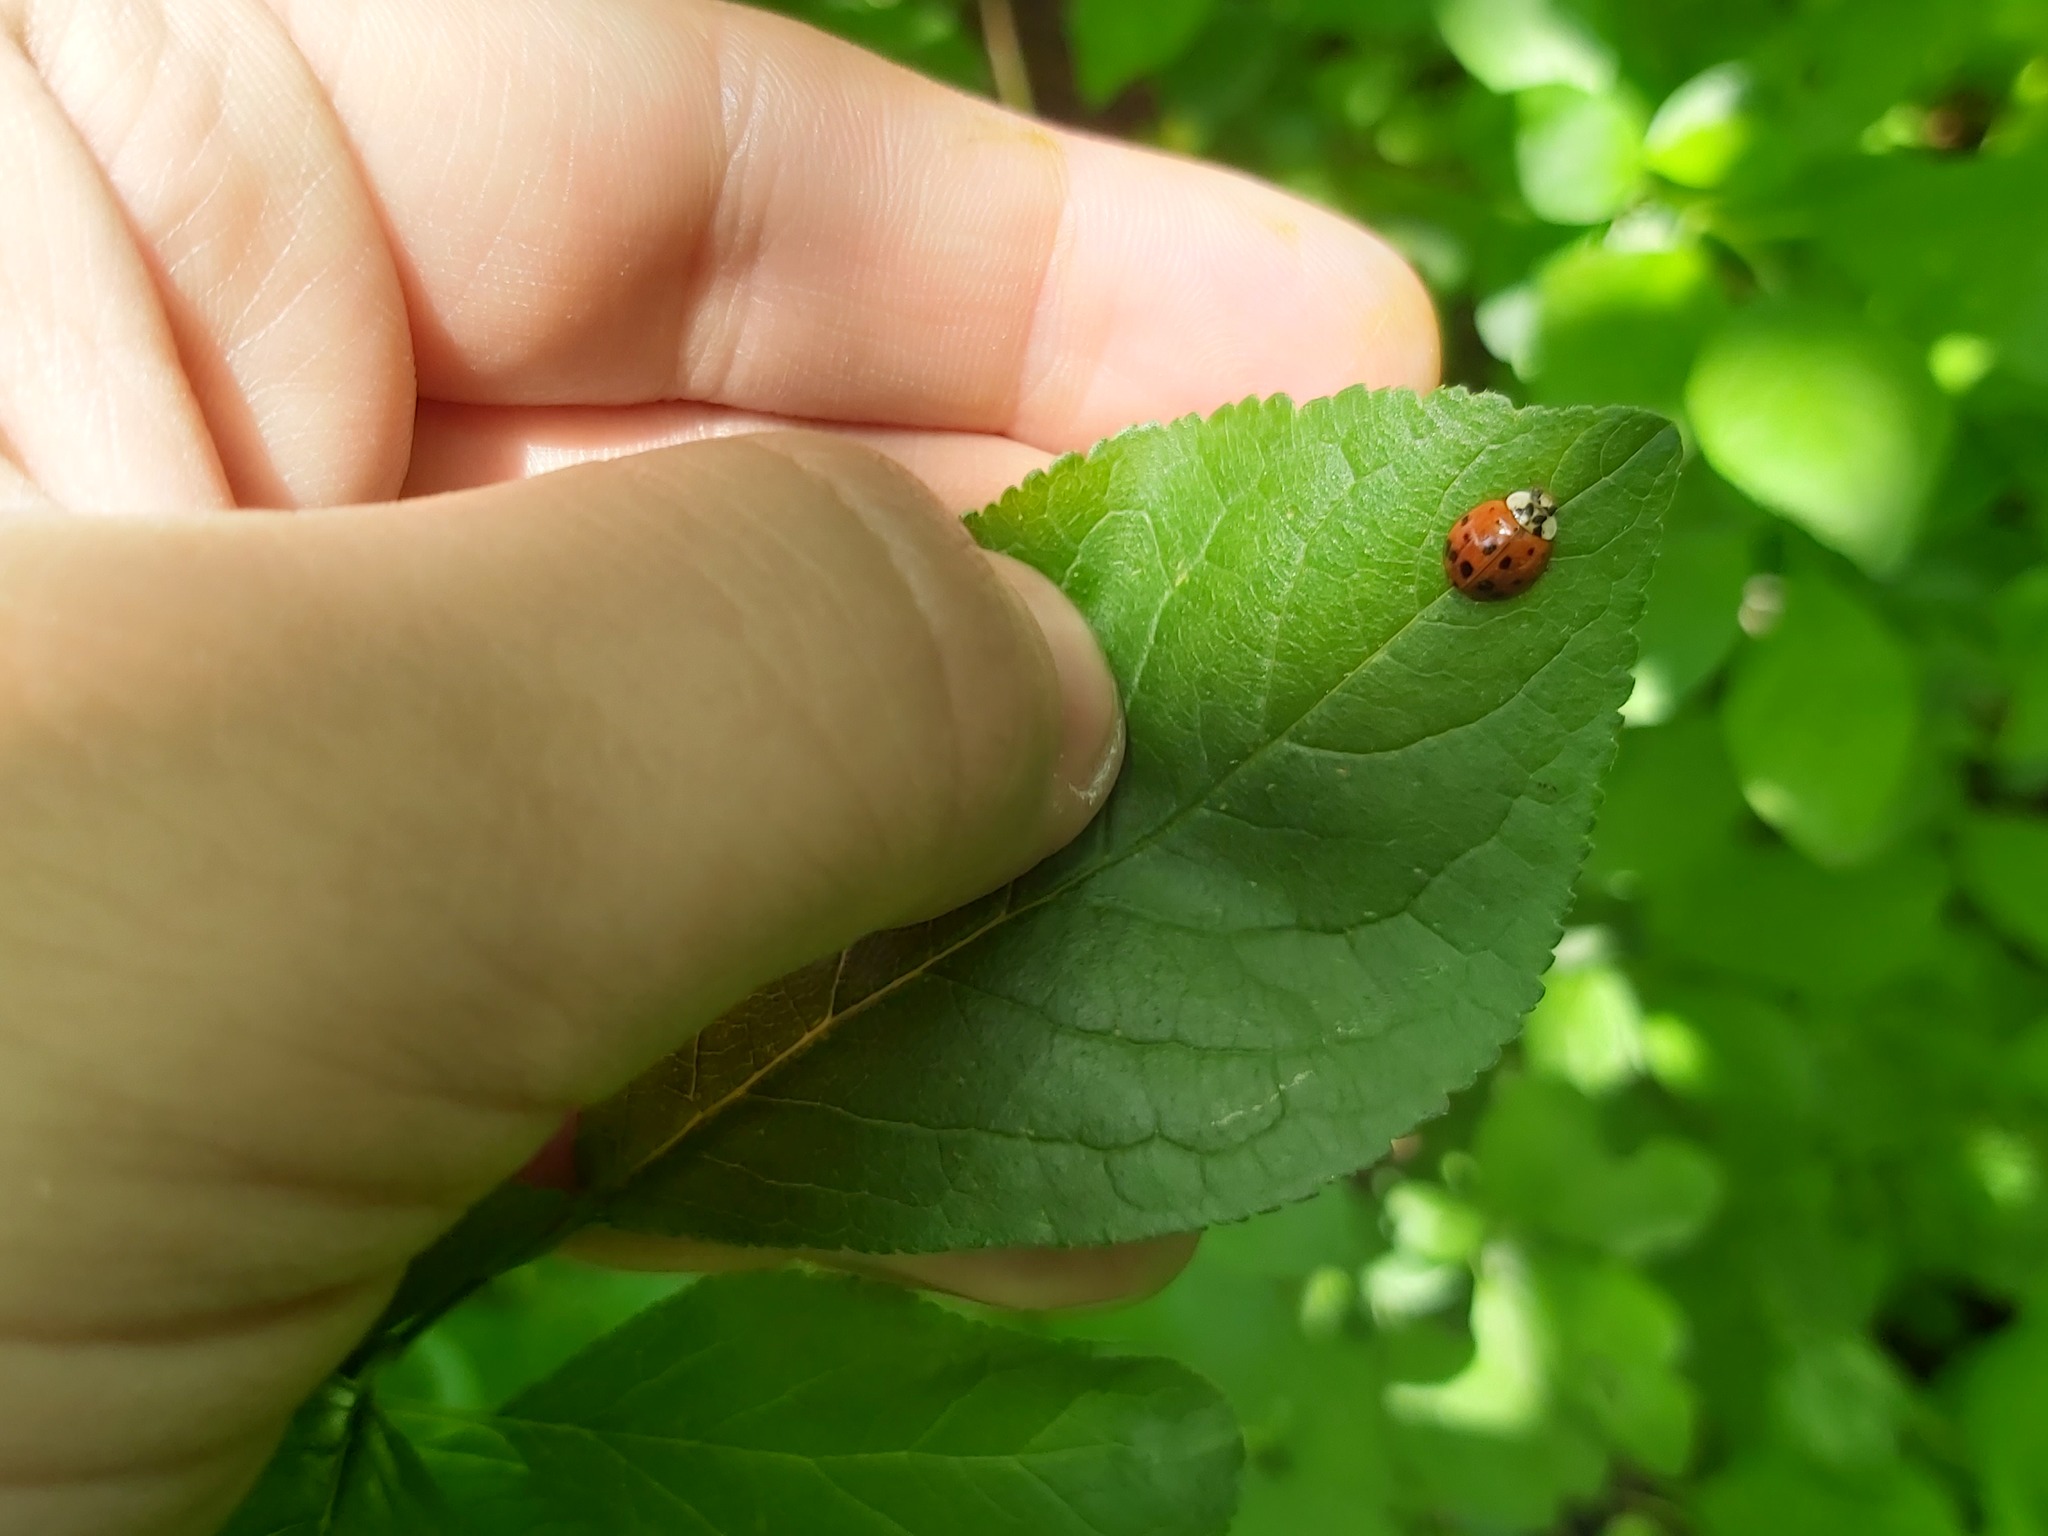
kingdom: Animalia
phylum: Arthropoda
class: Insecta
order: Coleoptera
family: Coccinellidae
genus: Harmonia
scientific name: Harmonia axyridis
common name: Harlequin ladybird
